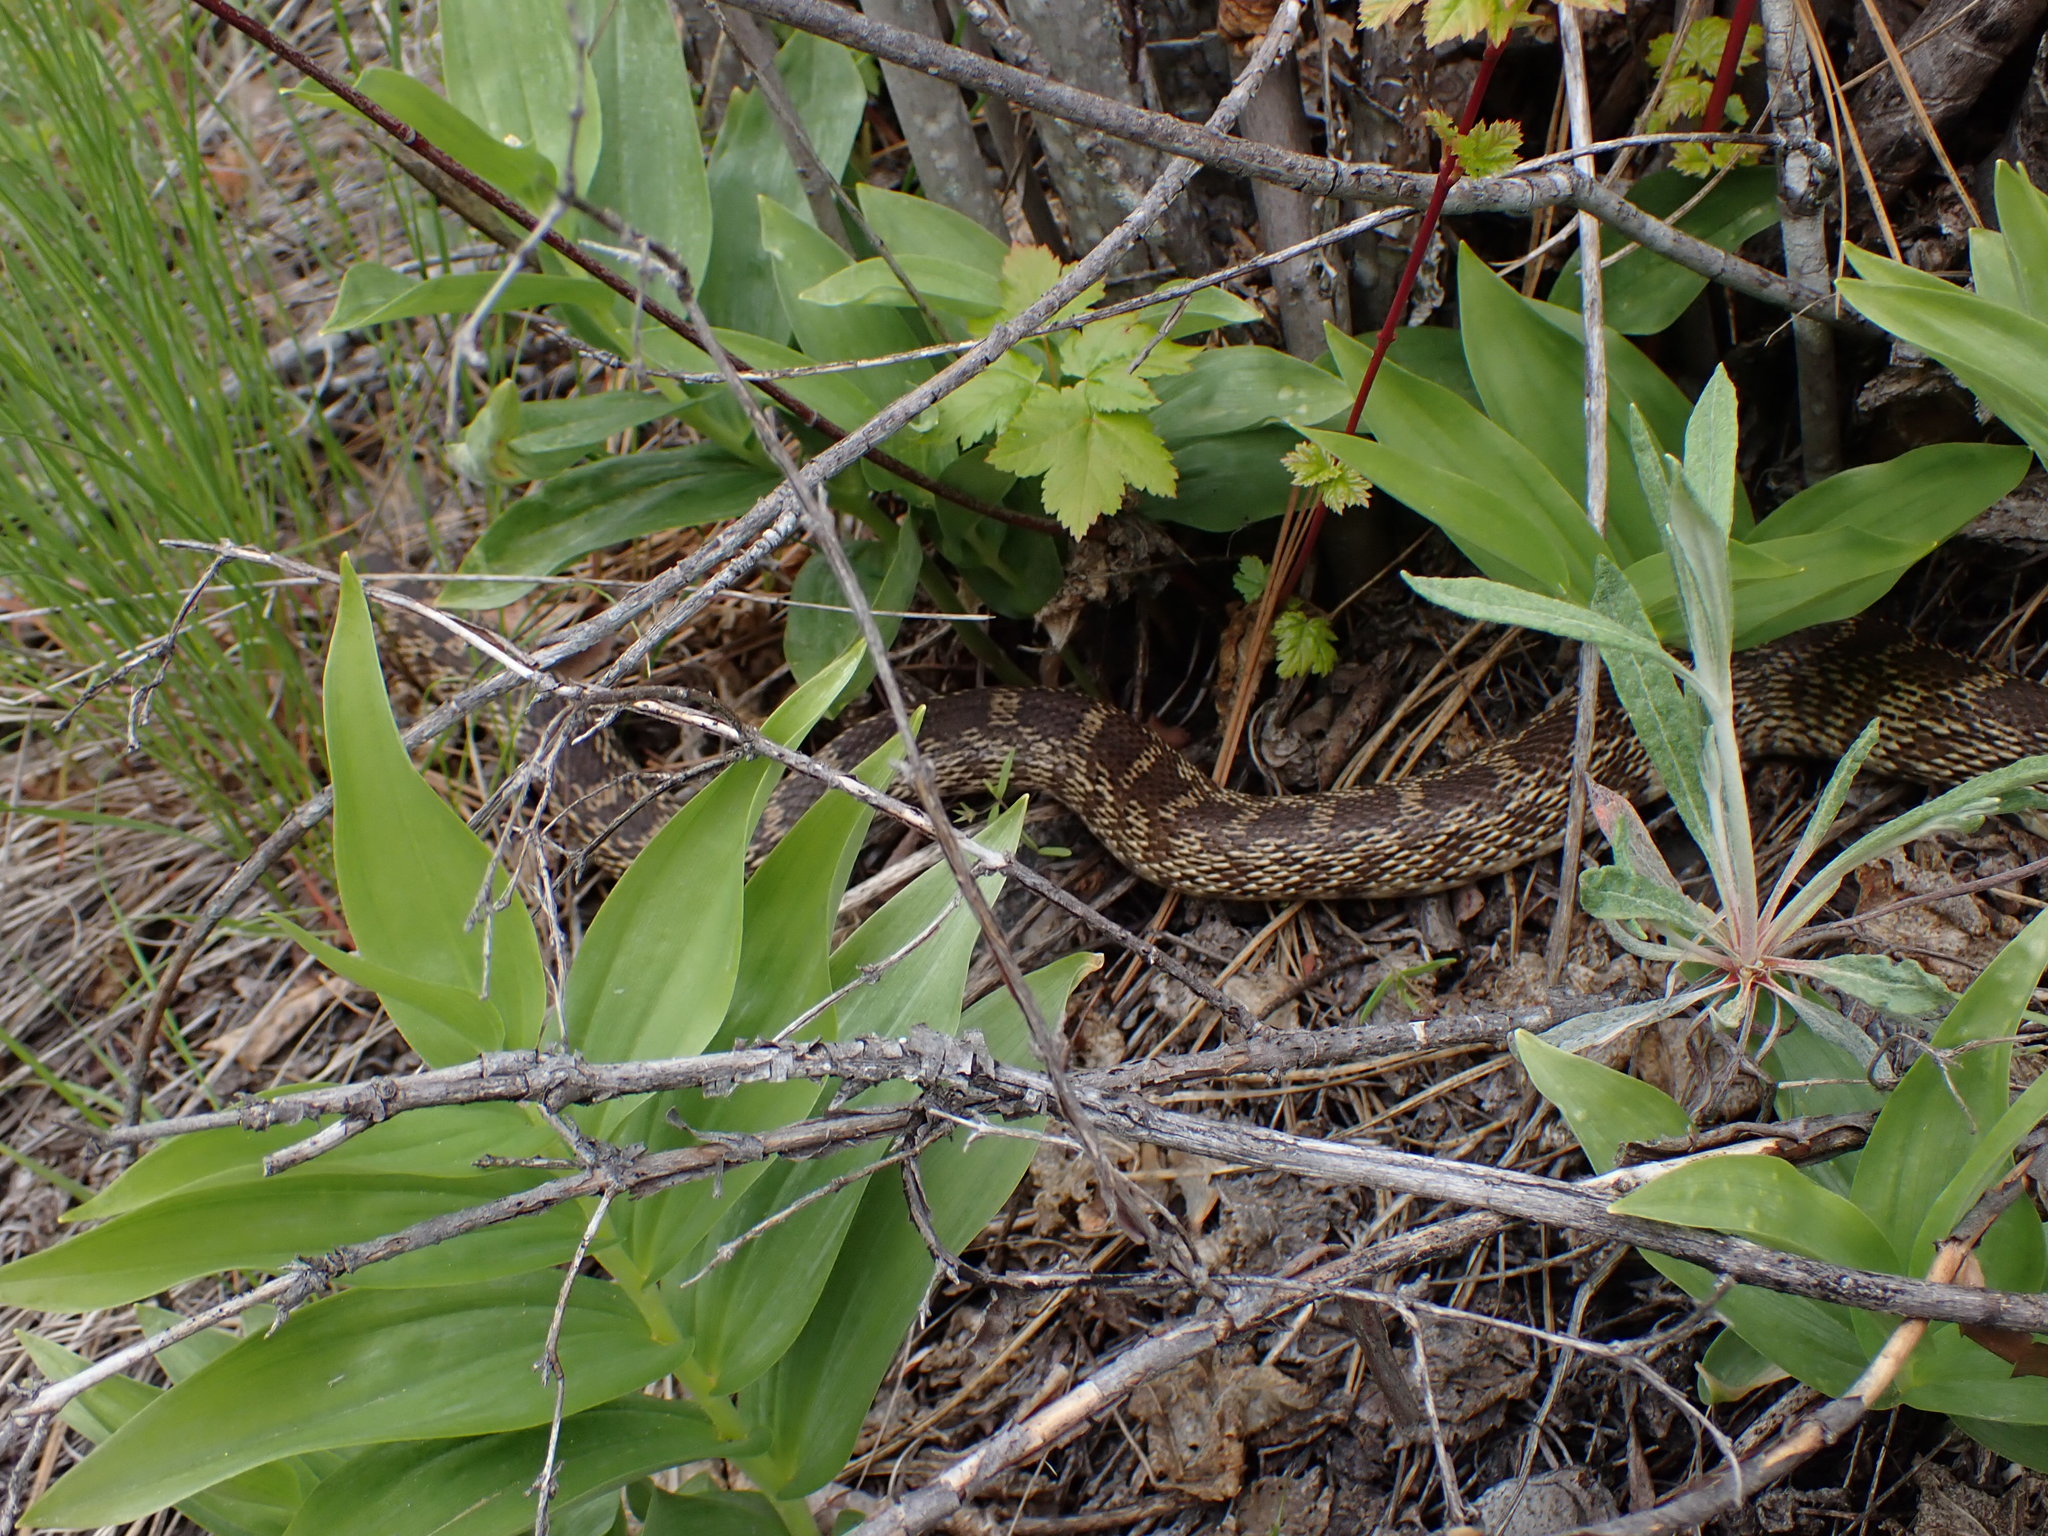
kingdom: Animalia
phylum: Chordata
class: Squamata
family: Colubridae
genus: Pituophis
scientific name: Pituophis catenifer
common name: Gopher snake
